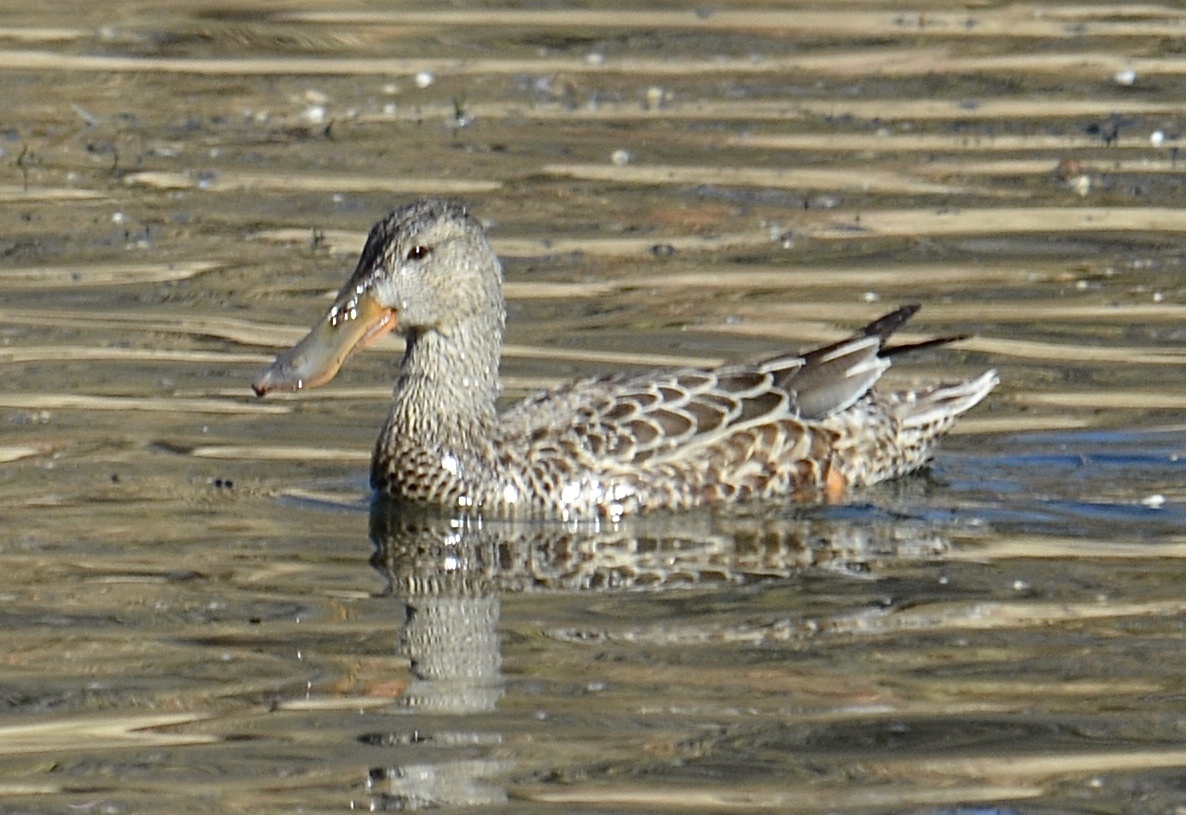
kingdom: Animalia
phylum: Chordata
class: Aves
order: Anseriformes
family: Anatidae
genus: Spatula
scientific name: Spatula clypeata
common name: Northern shoveler
